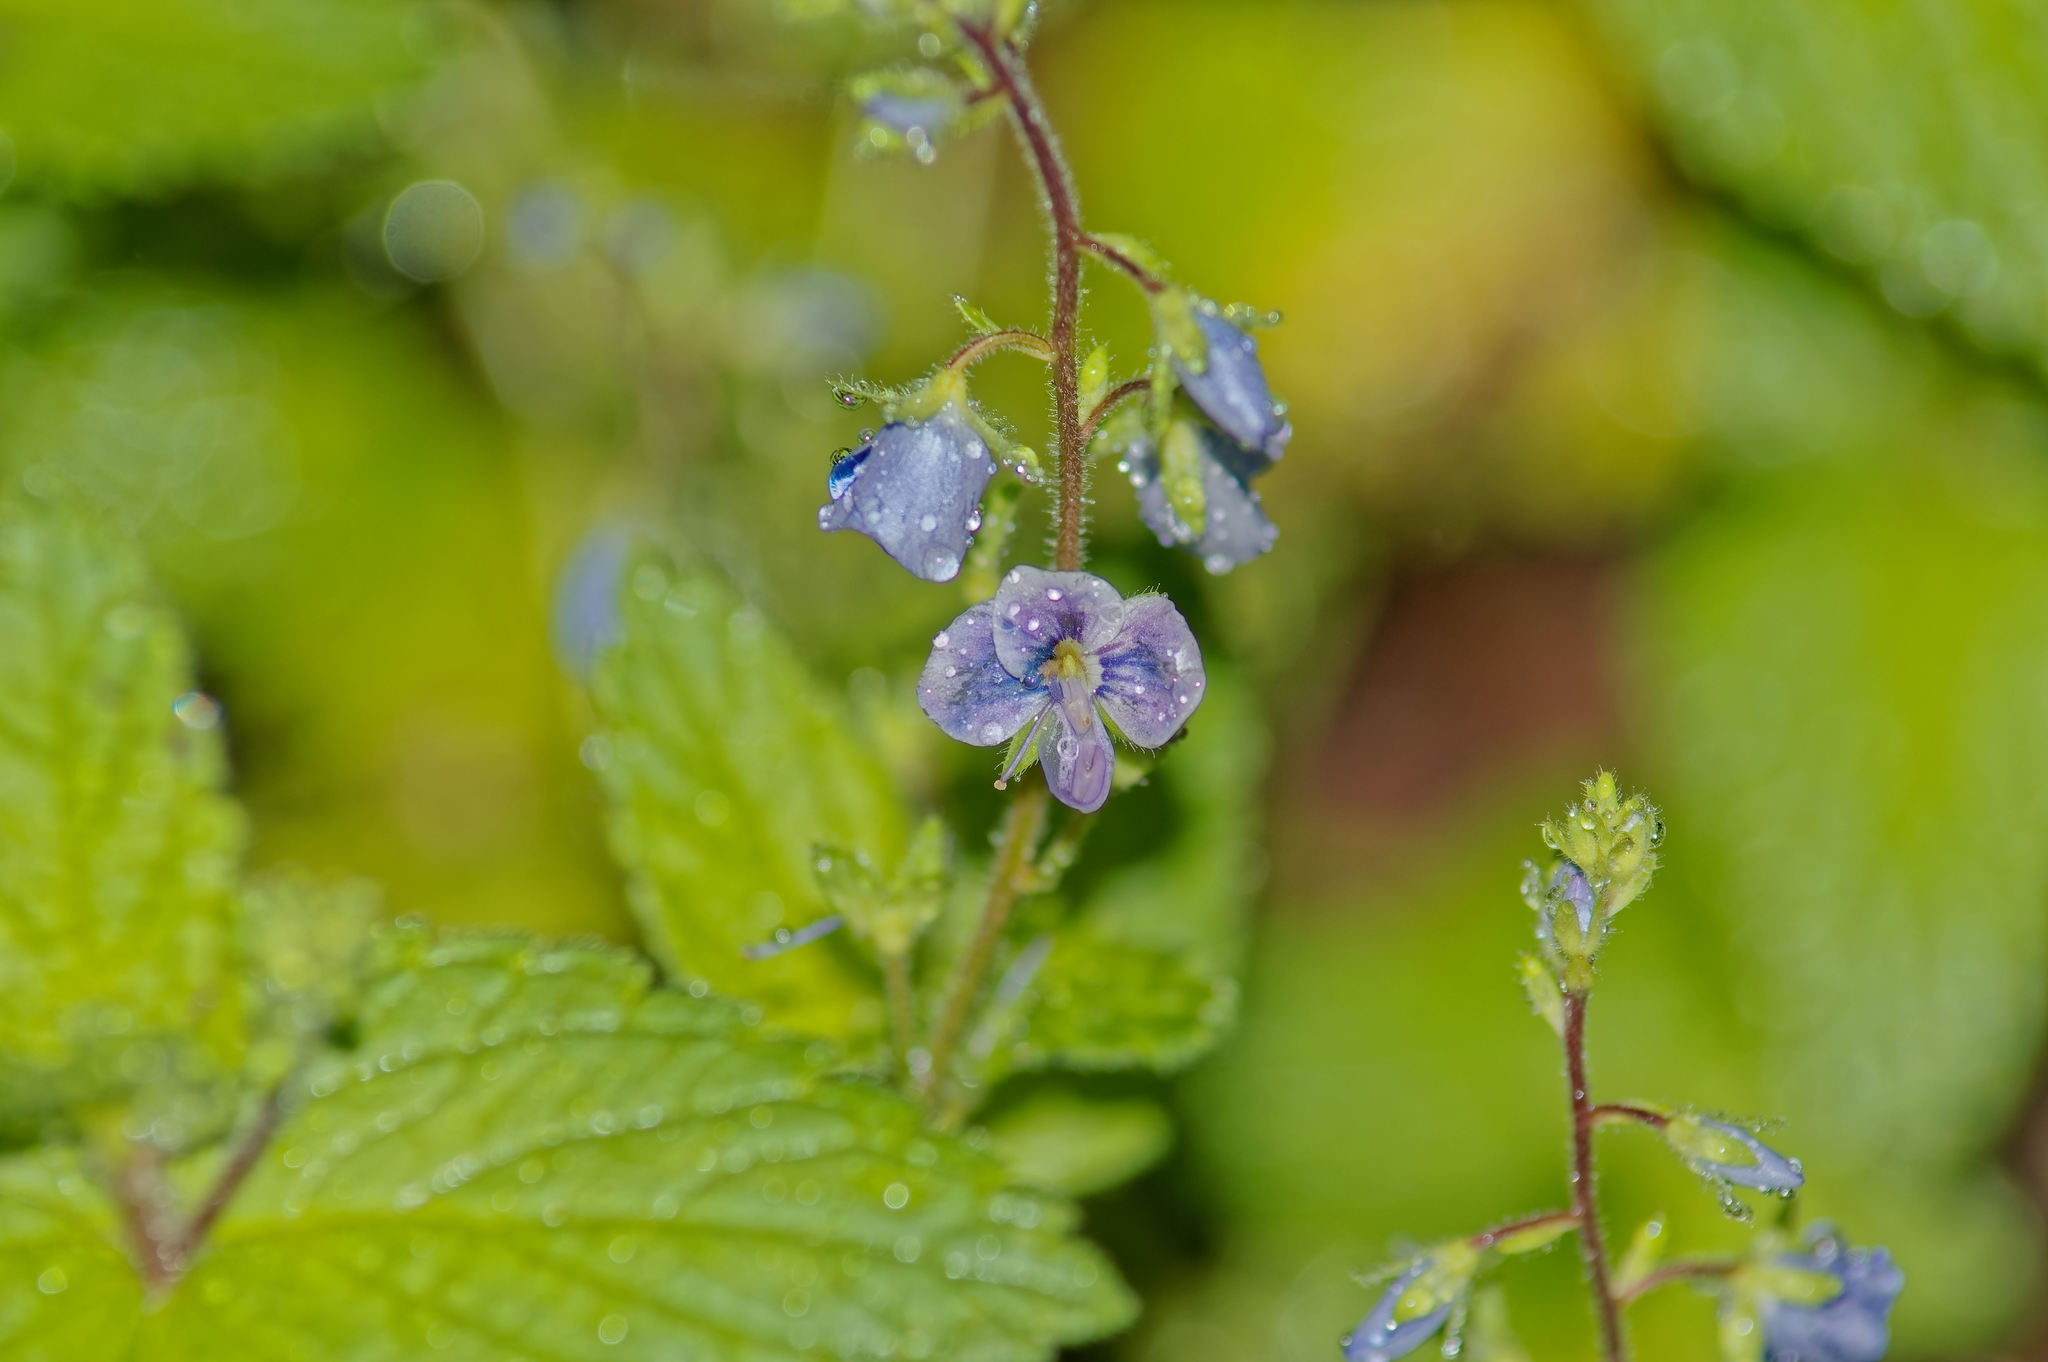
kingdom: Plantae
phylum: Tracheophyta
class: Magnoliopsida
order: Lamiales
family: Plantaginaceae
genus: Veronica
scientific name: Veronica chamaedrys
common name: Germander speedwell
